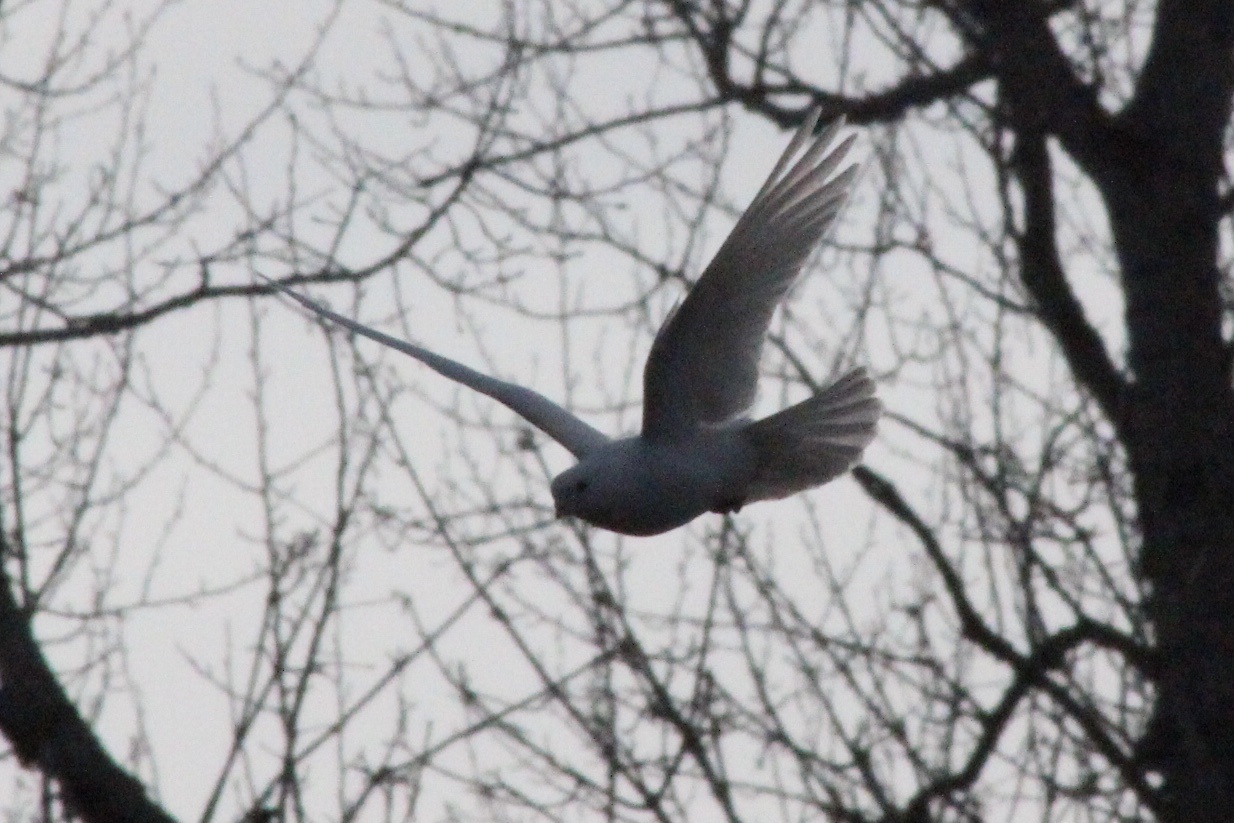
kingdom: Animalia
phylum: Chordata
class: Aves
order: Columbiformes
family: Columbidae
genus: Columba
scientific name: Columba livia
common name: Rock pigeon
